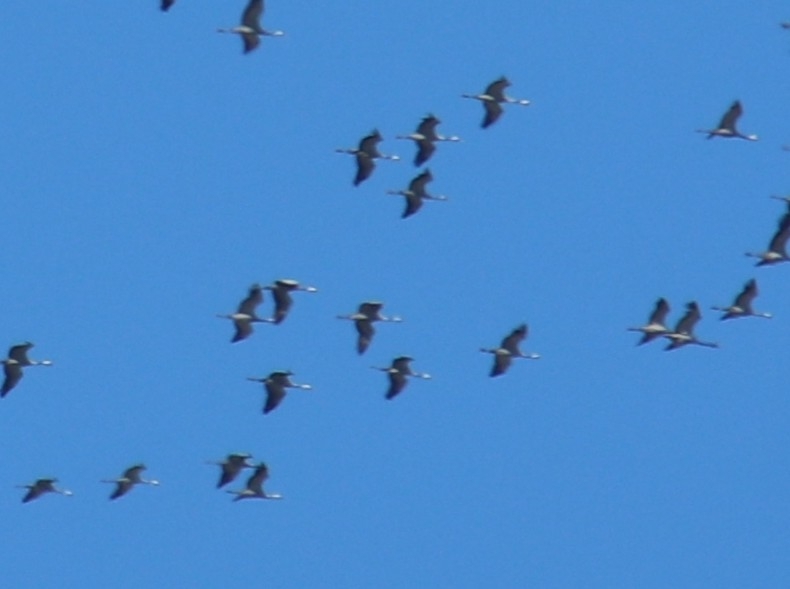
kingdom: Animalia
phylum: Chordata
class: Aves
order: Gruiformes
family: Gruidae
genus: Grus
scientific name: Grus grus
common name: Common crane
